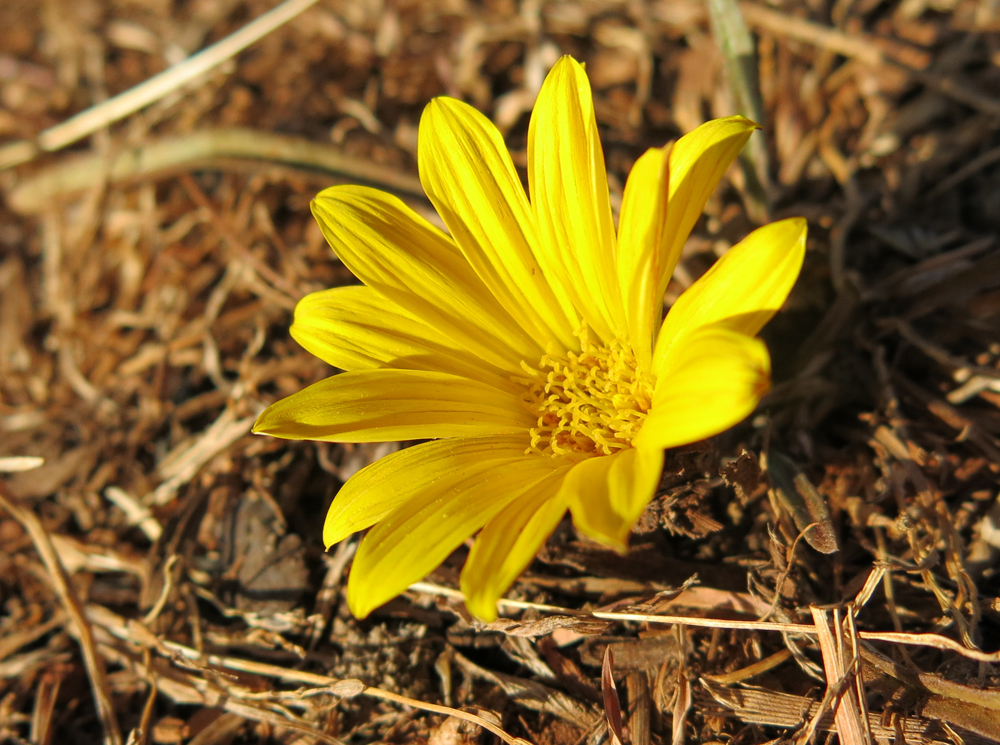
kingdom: Plantae
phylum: Tracheophyta
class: Magnoliopsida
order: Asterales
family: Asteraceae
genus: Gazania
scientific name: Gazania krebsiana
